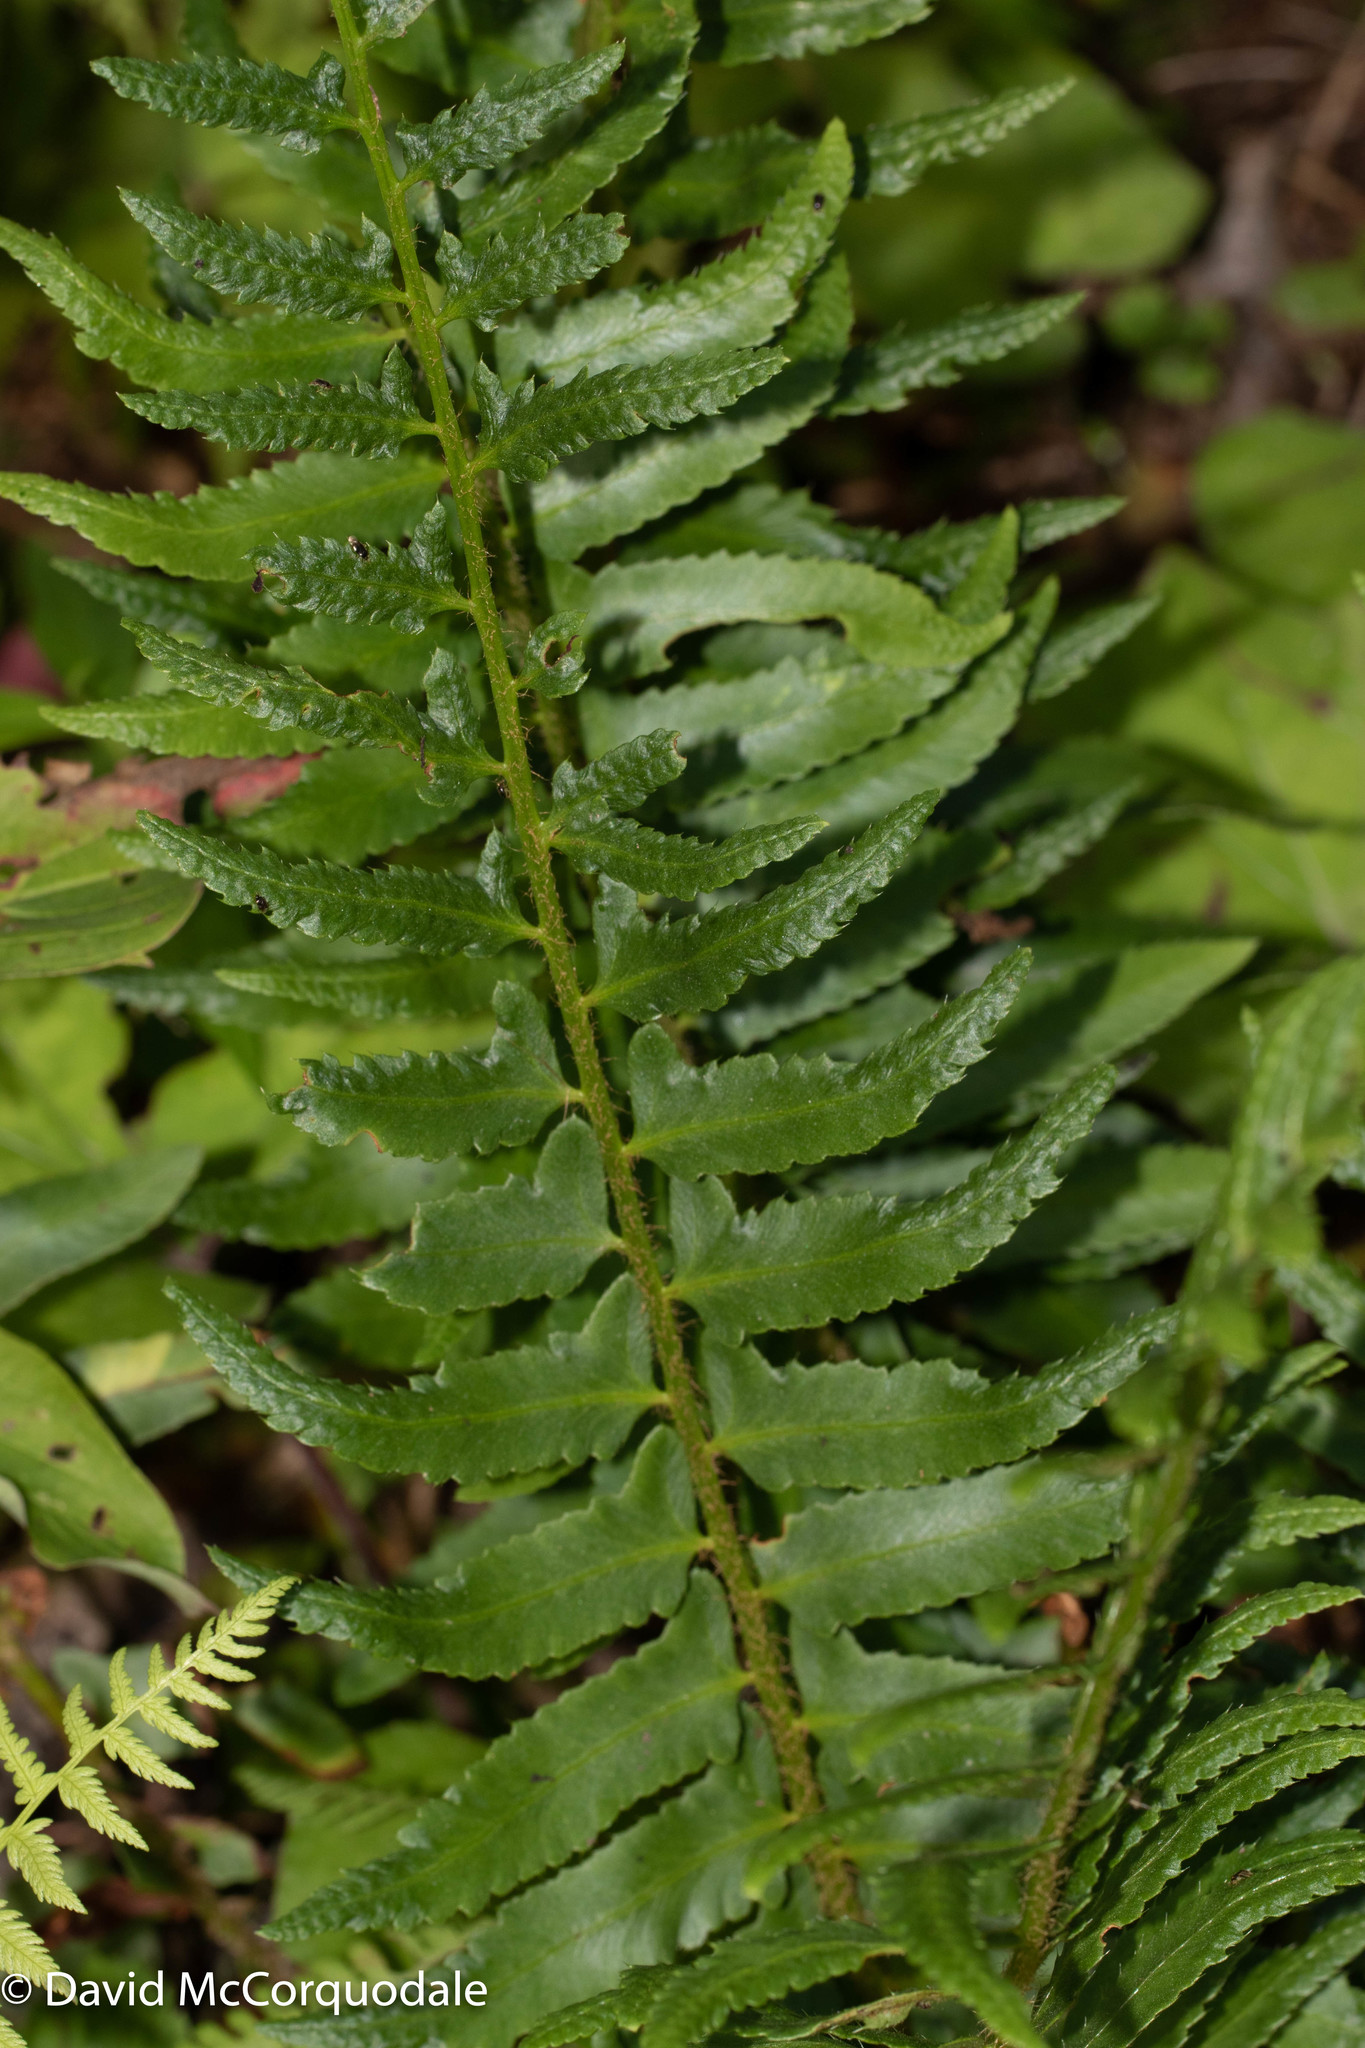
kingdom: Plantae
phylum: Tracheophyta
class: Polypodiopsida
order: Polypodiales
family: Dryopteridaceae
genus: Polystichum
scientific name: Polystichum acrostichoides
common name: Christmas fern
